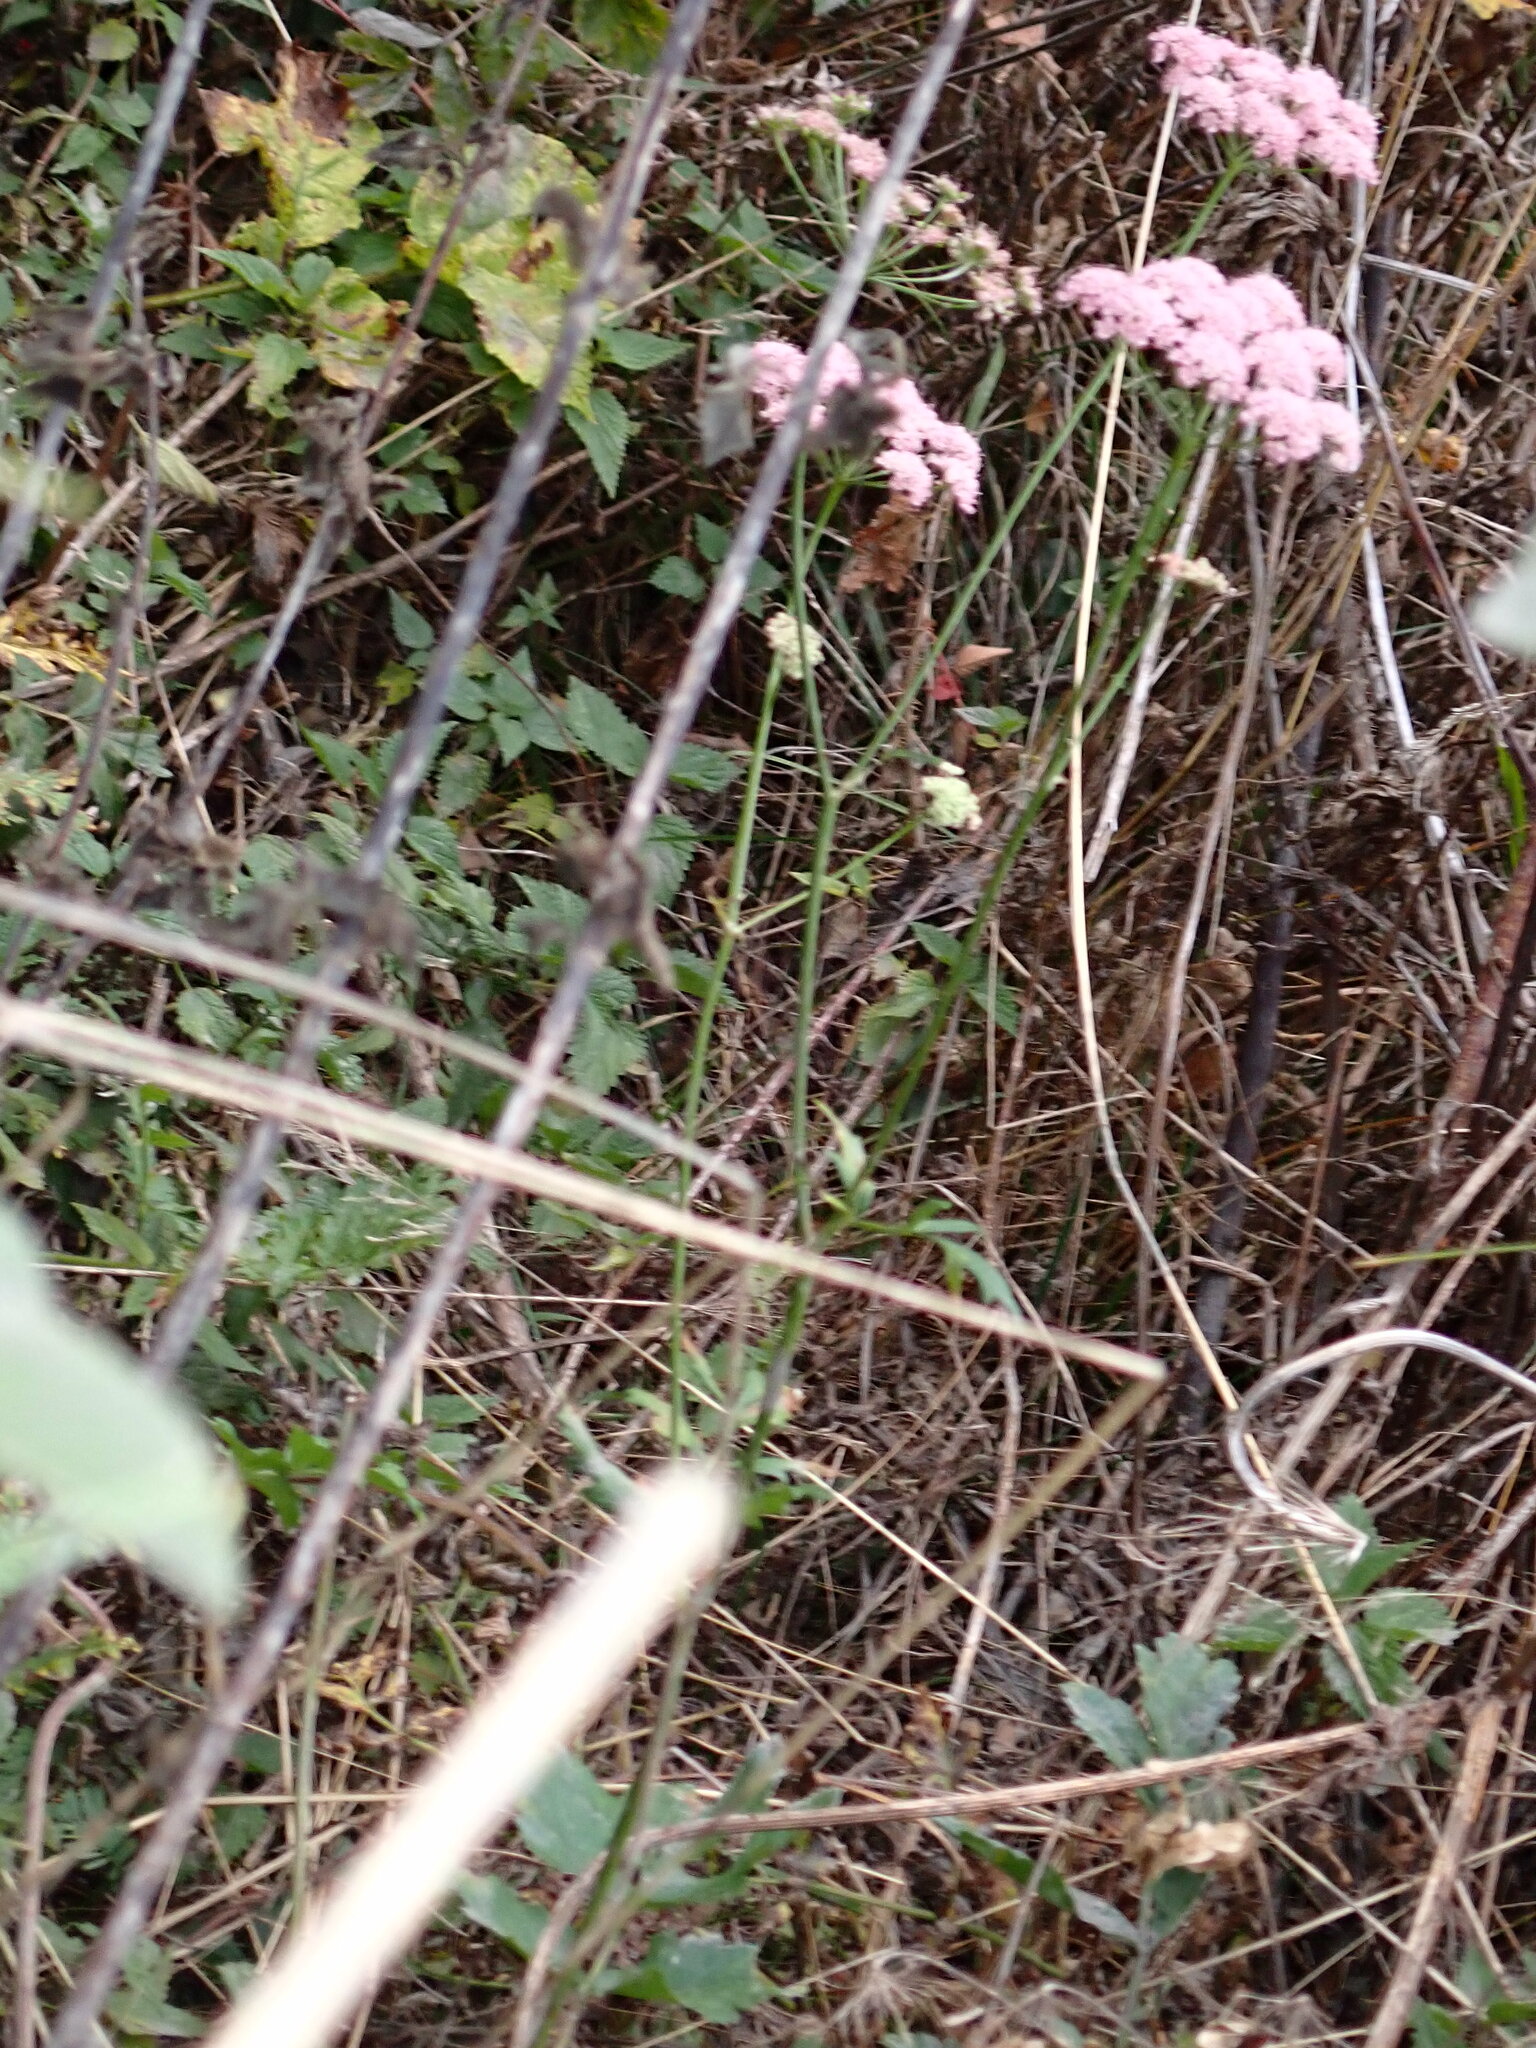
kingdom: Plantae
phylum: Tracheophyta
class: Magnoliopsida
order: Apiales
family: Apiaceae
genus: Pimpinella
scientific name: Pimpinella major
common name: Greater burnet-saxifrage
